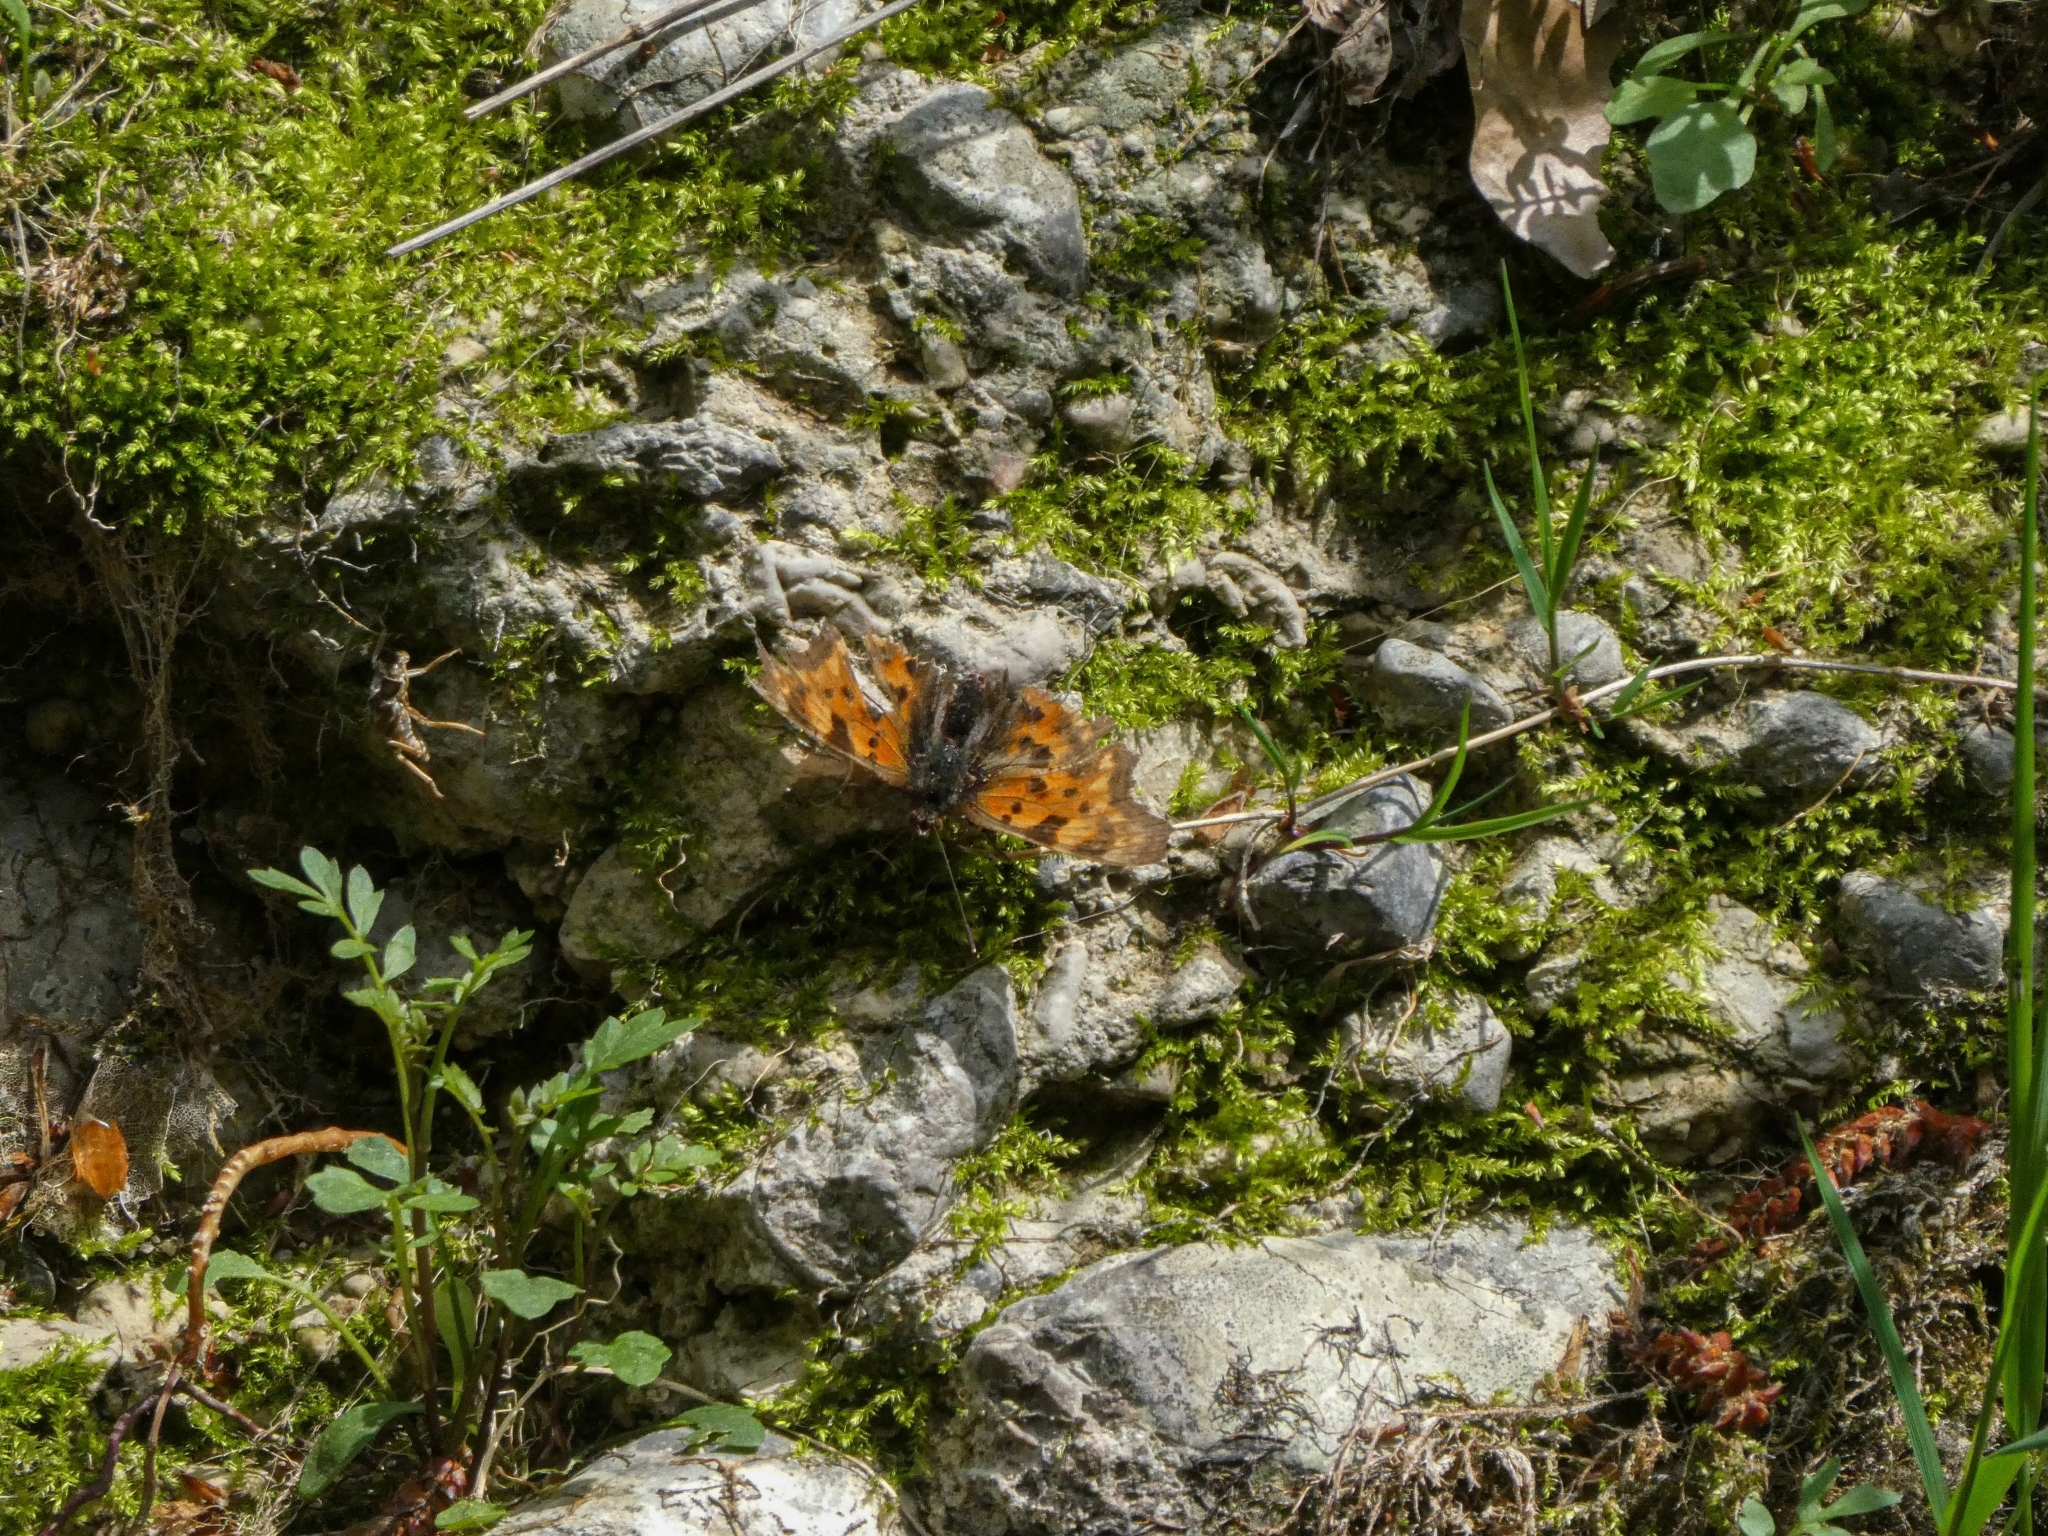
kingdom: Animalia
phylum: Arthropoda
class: Insecta
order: Lepidoptera
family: Nymphalidae
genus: Polygonia
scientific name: Polygonia c-album
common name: Comma
